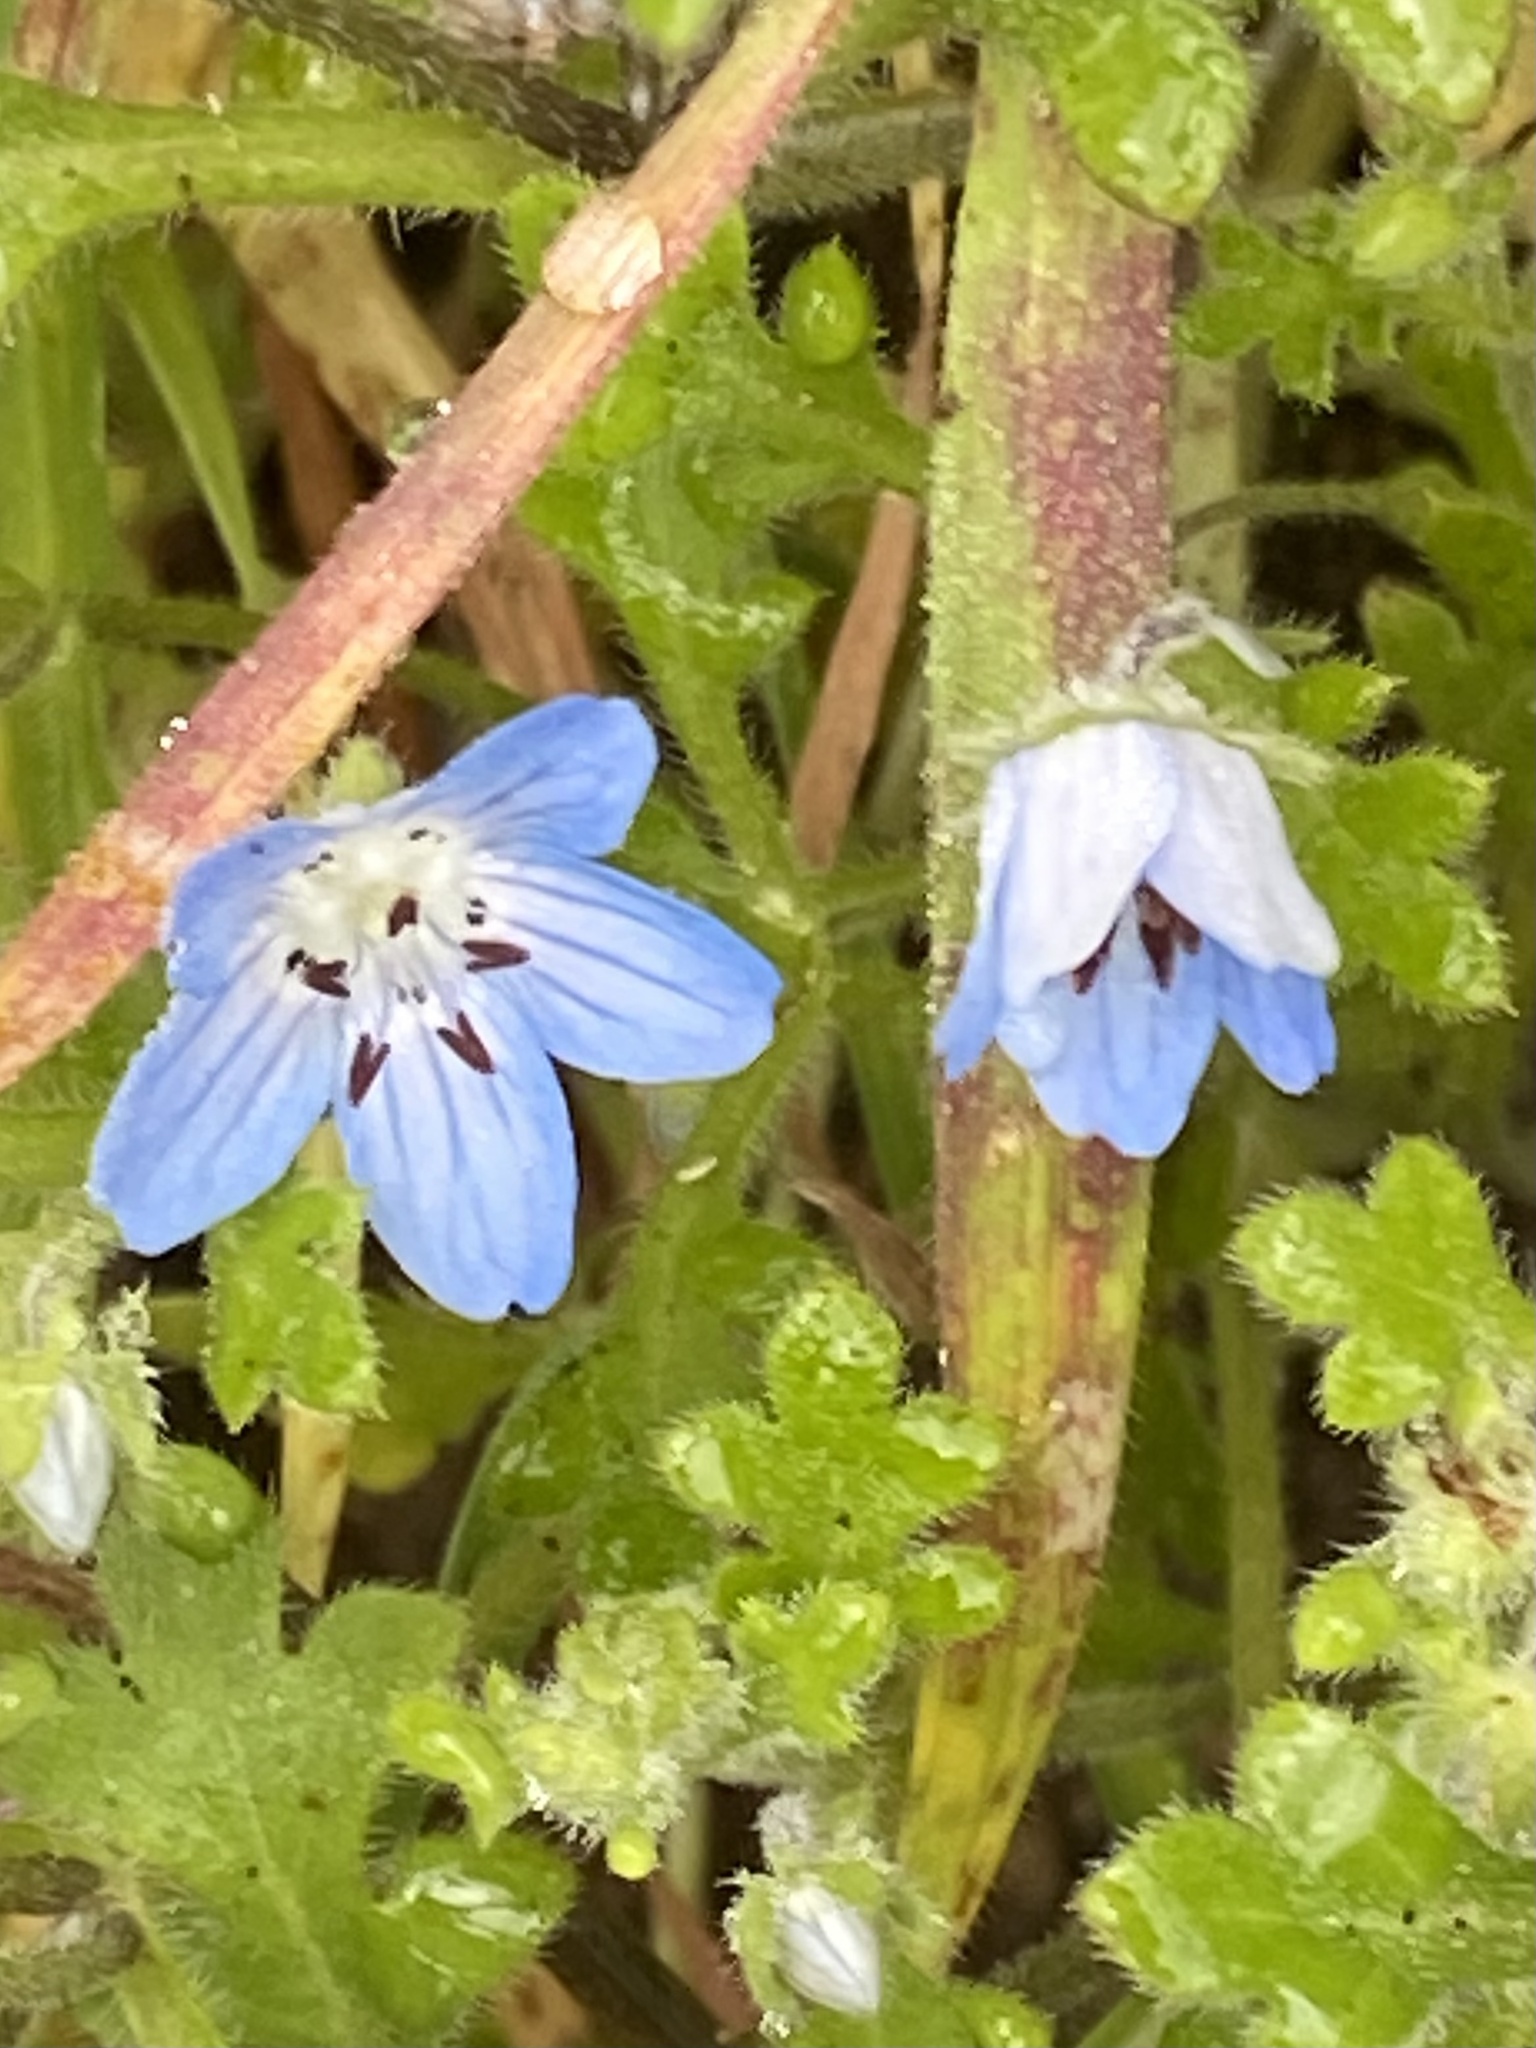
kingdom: Plantae
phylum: Tracheophyta
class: Magnoliopsida
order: Boraginales
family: Hydrophyllaceae
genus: Nemophila
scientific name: Nemophila menziesii
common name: Baby's-blue-eyes
